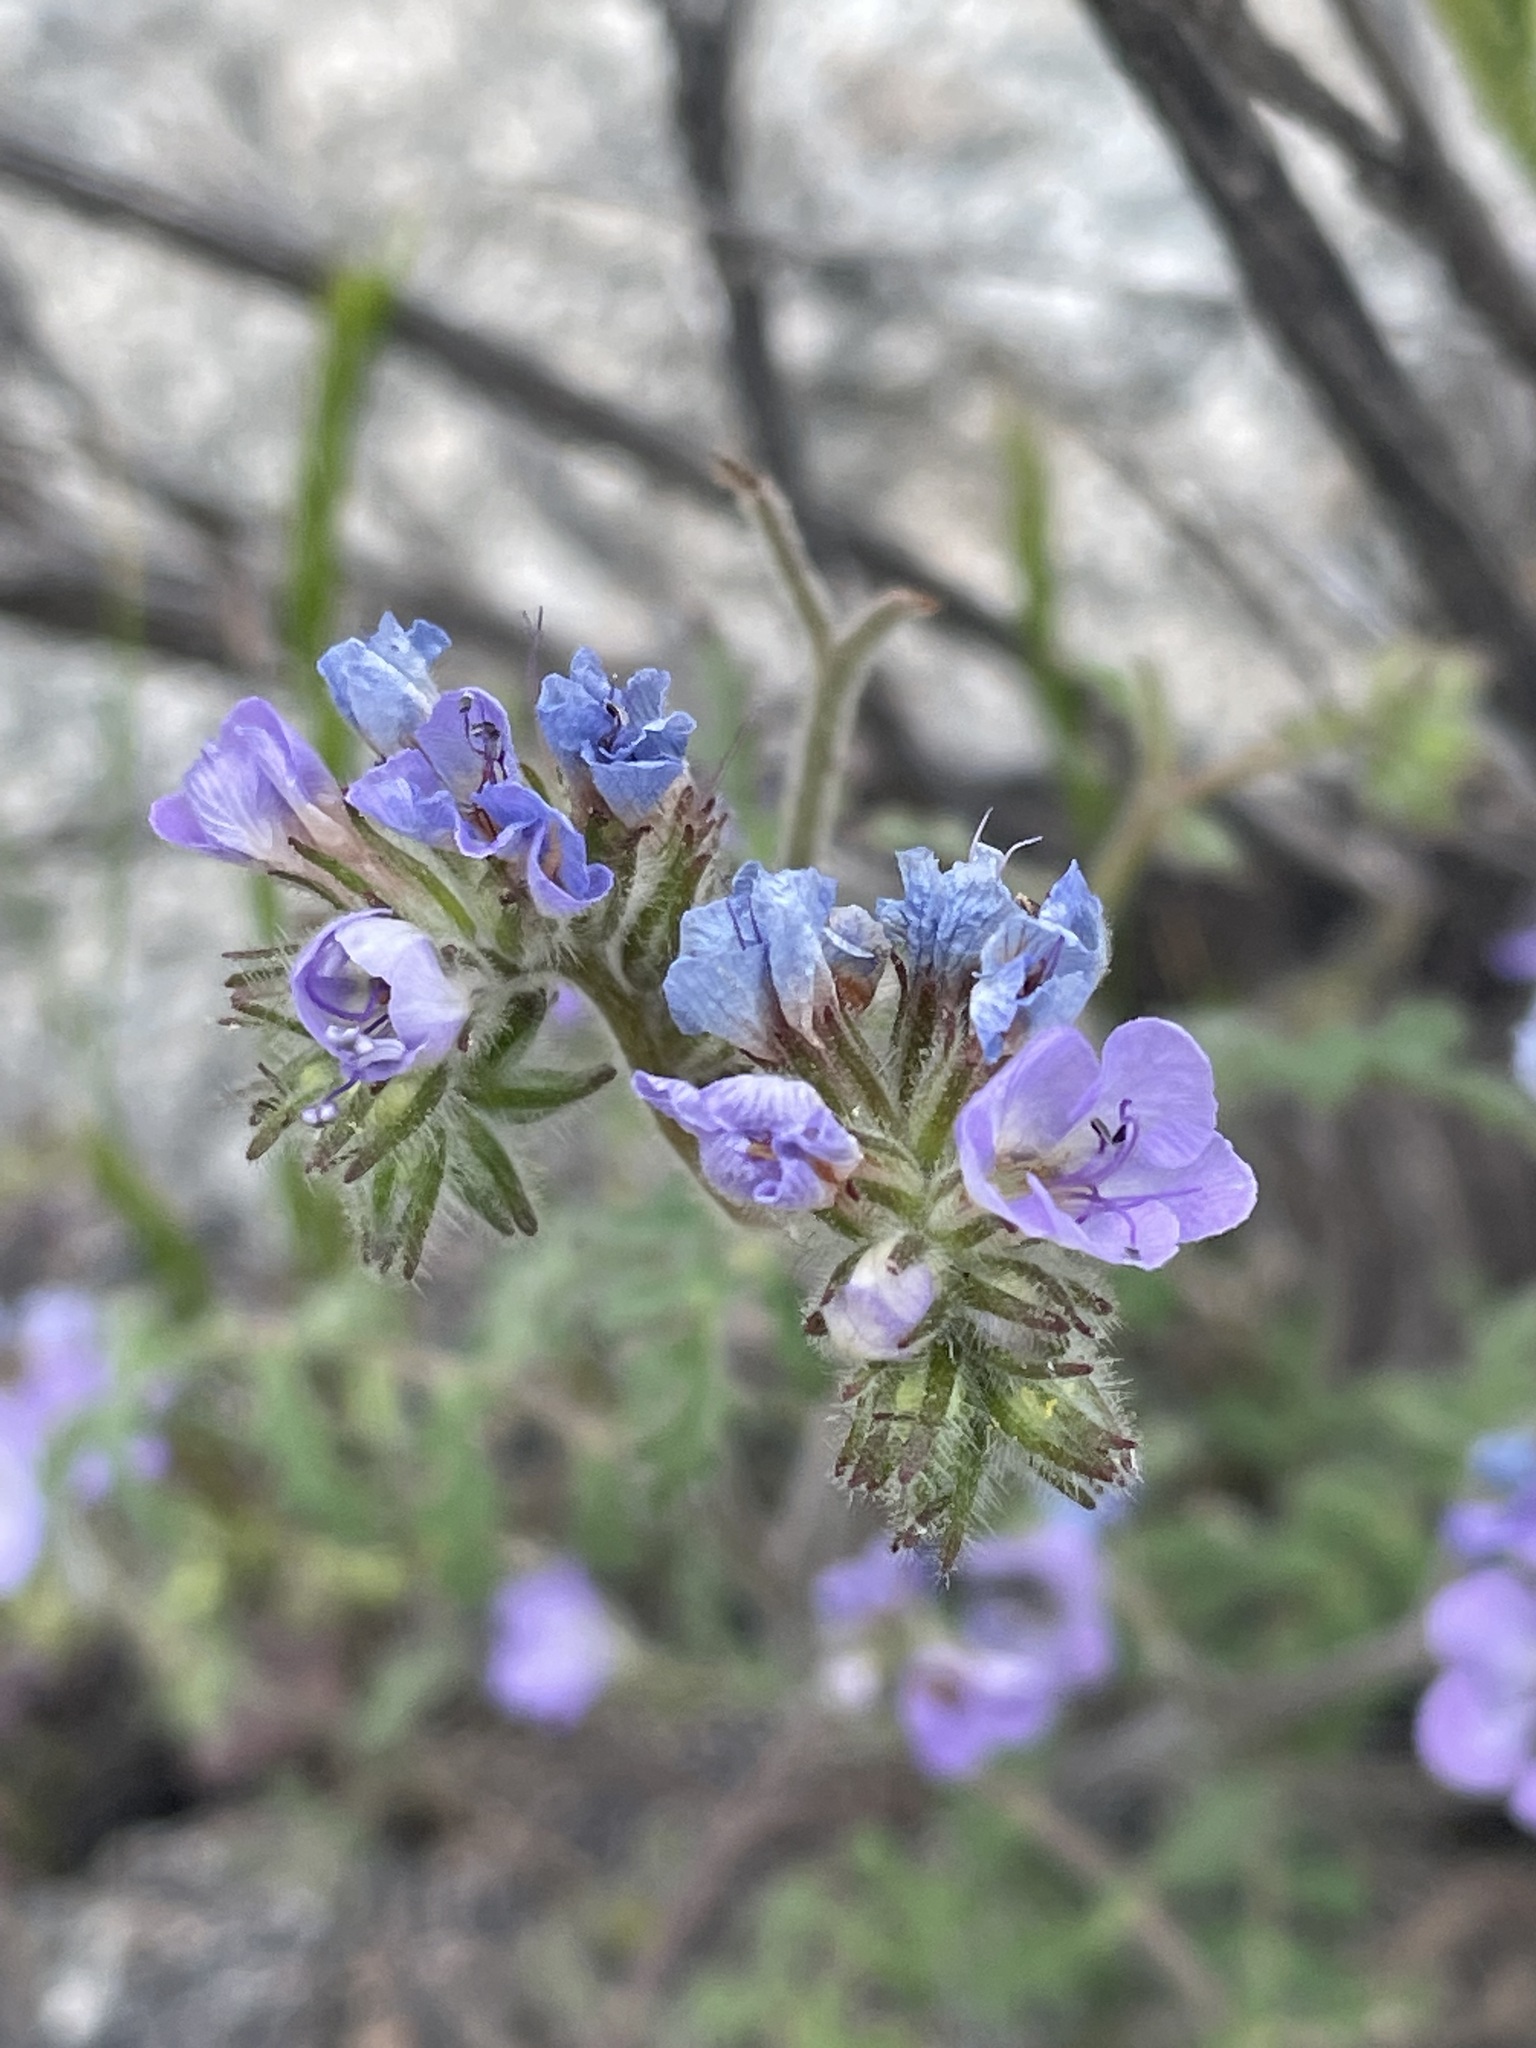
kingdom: Plantae
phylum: Tracheophyta
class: Magnoliopsida
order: Boraginales
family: Hydrophyllaceae
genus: Phacelia
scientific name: Phacelia distans
